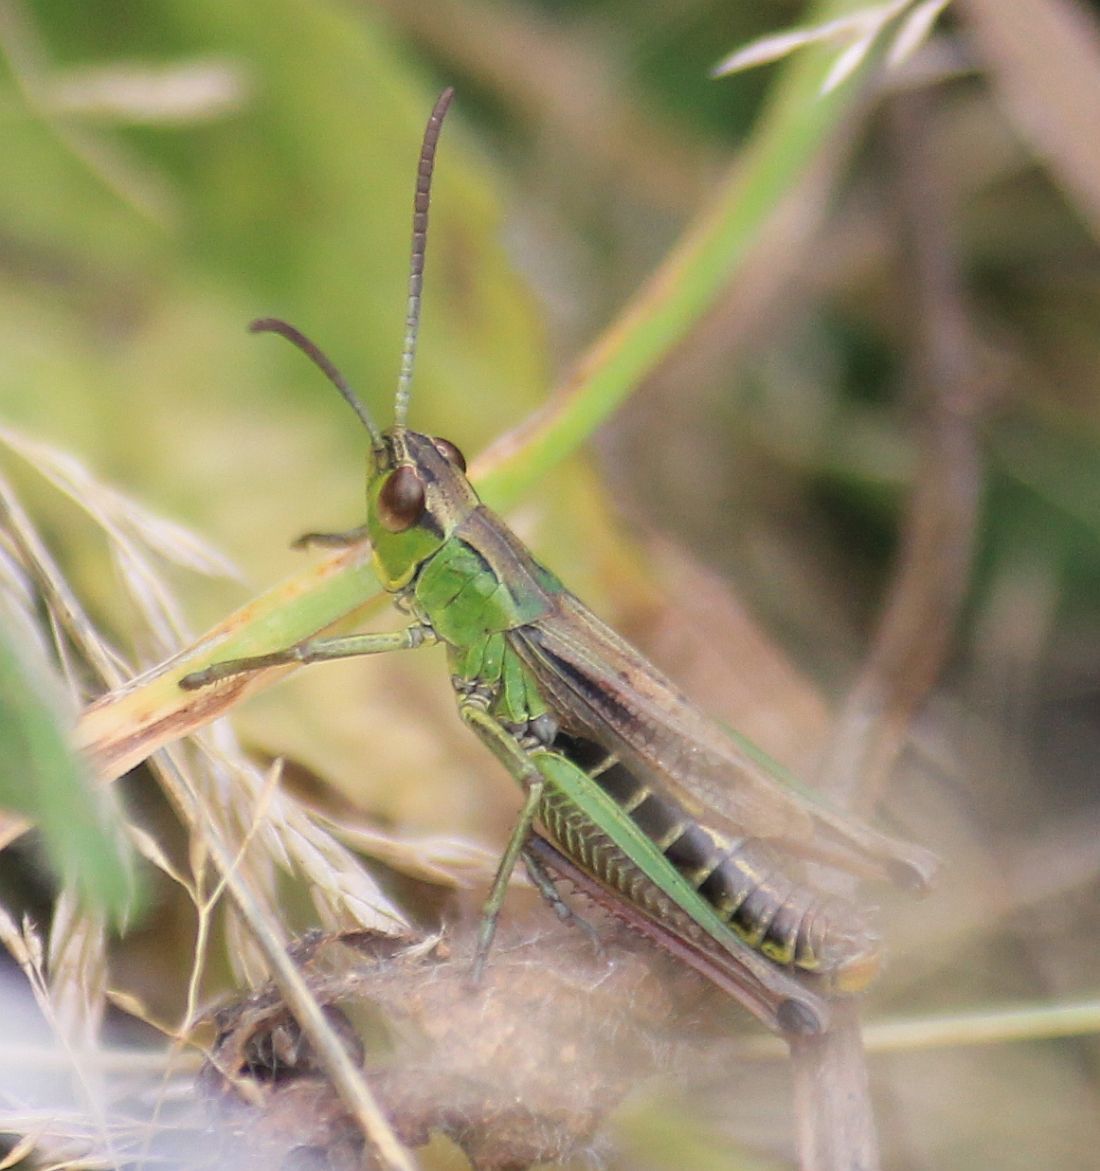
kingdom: Animalia
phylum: Arthropoda
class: Insecta
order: Orthoptera
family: Acrididae
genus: Pseudochorthippus
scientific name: Pseudochorthippus parallelus
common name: Meadow grasshopper
